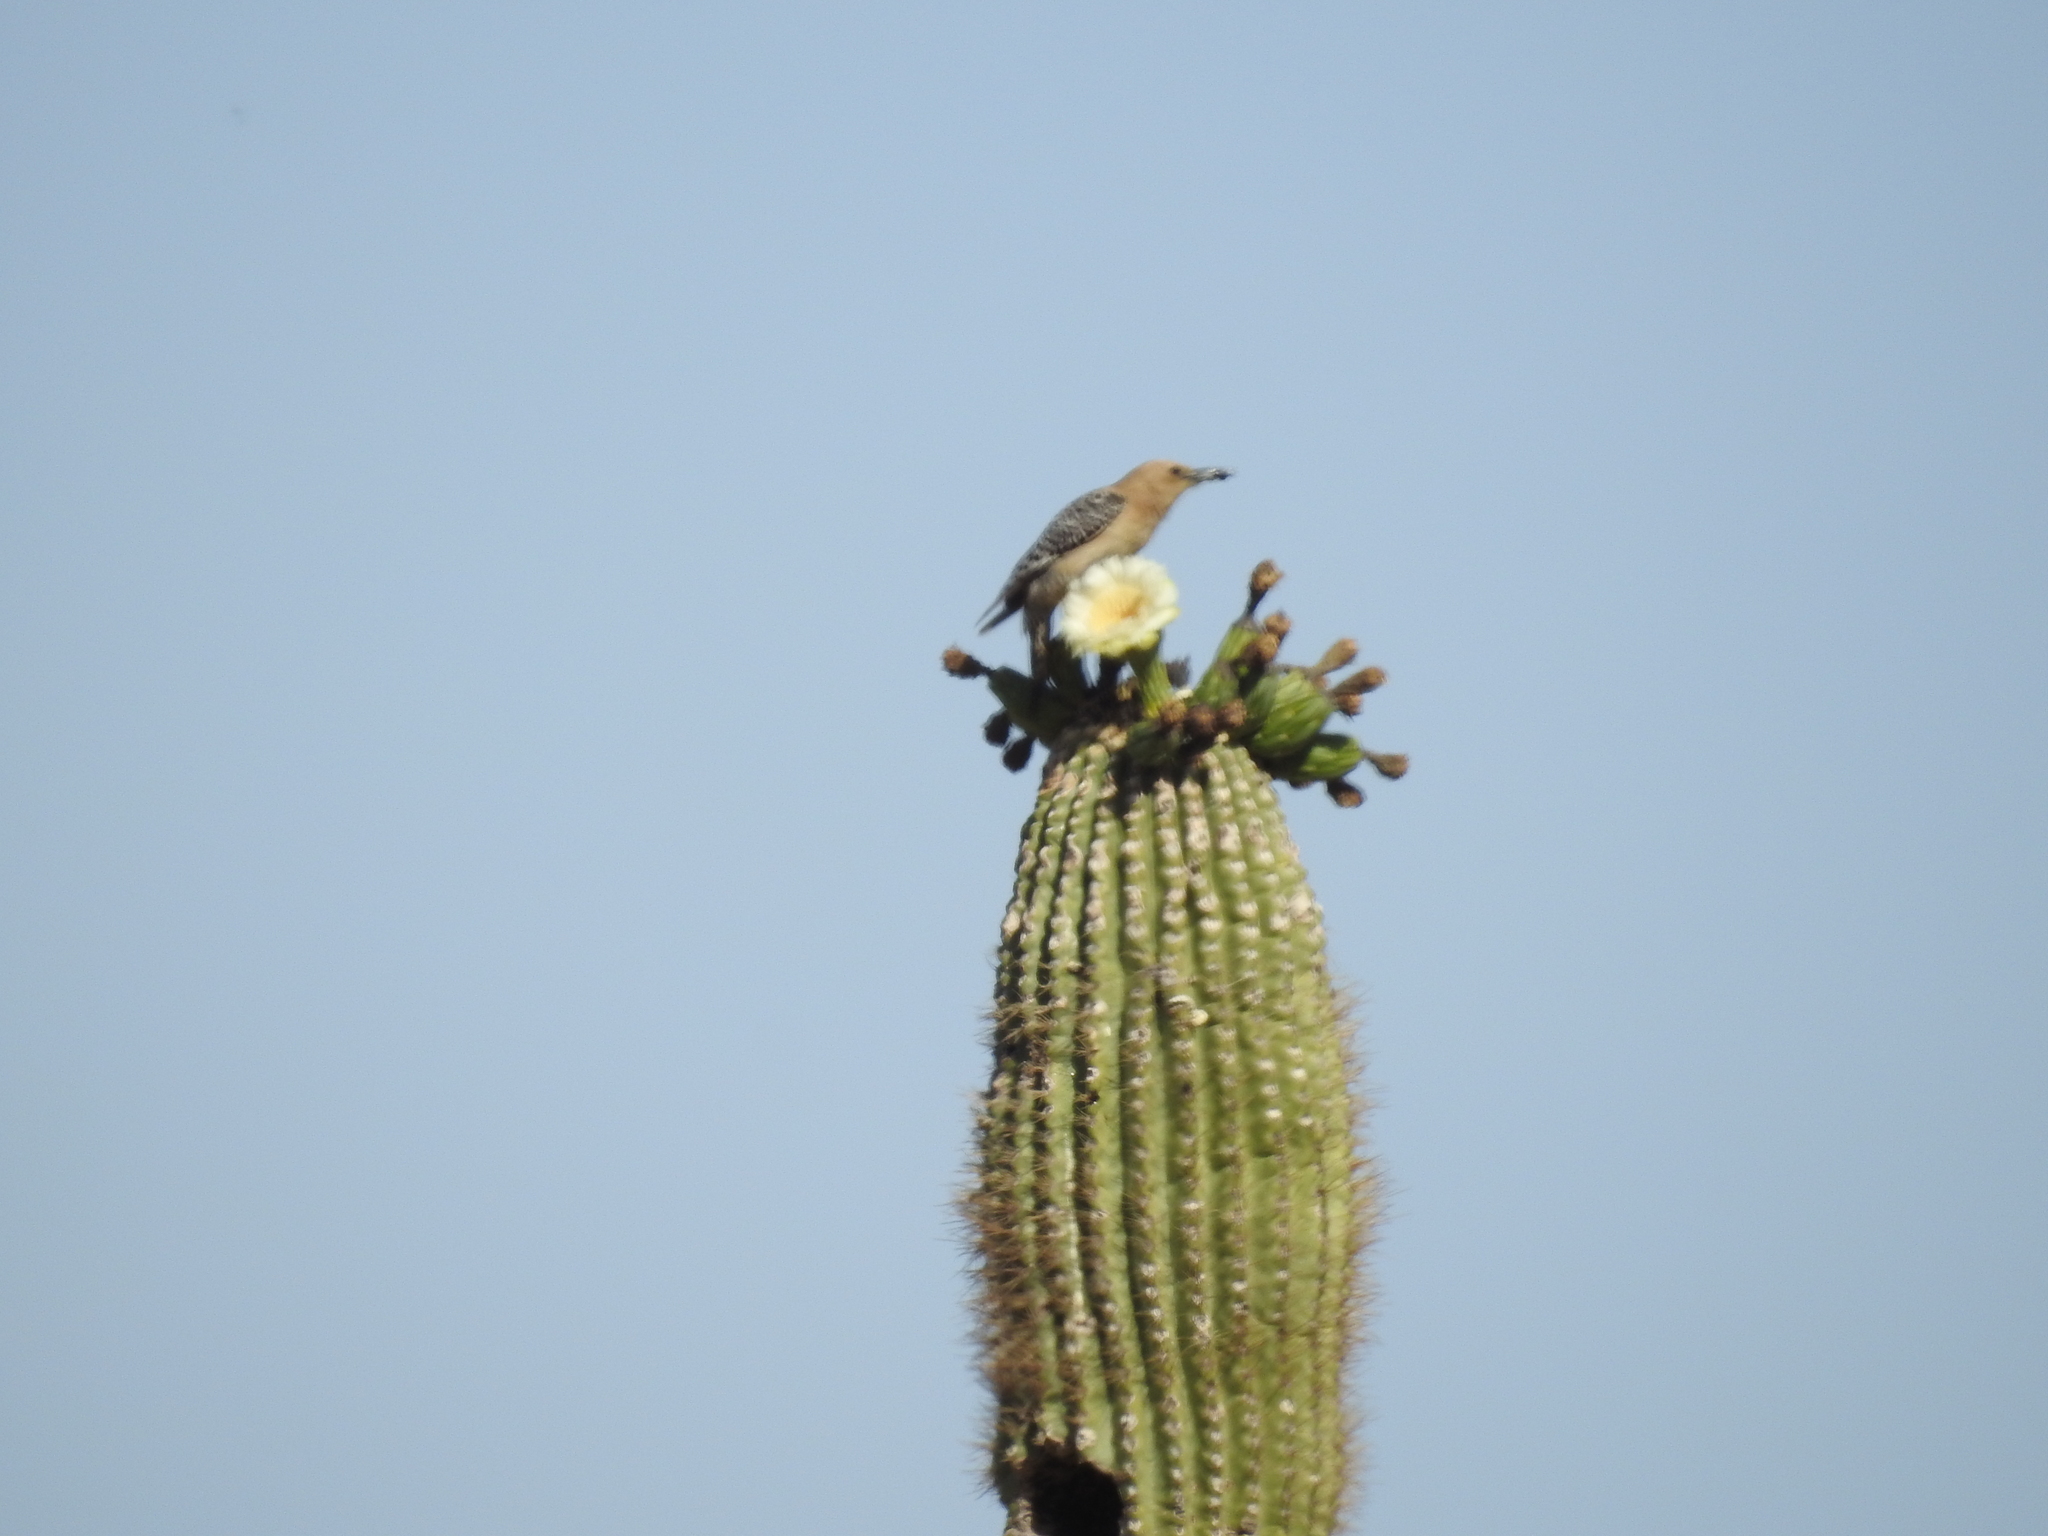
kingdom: Animalia
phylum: Chordata
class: Aves
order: Piciformes
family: Picidae
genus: Melanerpes
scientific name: Melanerpes uropygialis
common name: Gila woodpecker
